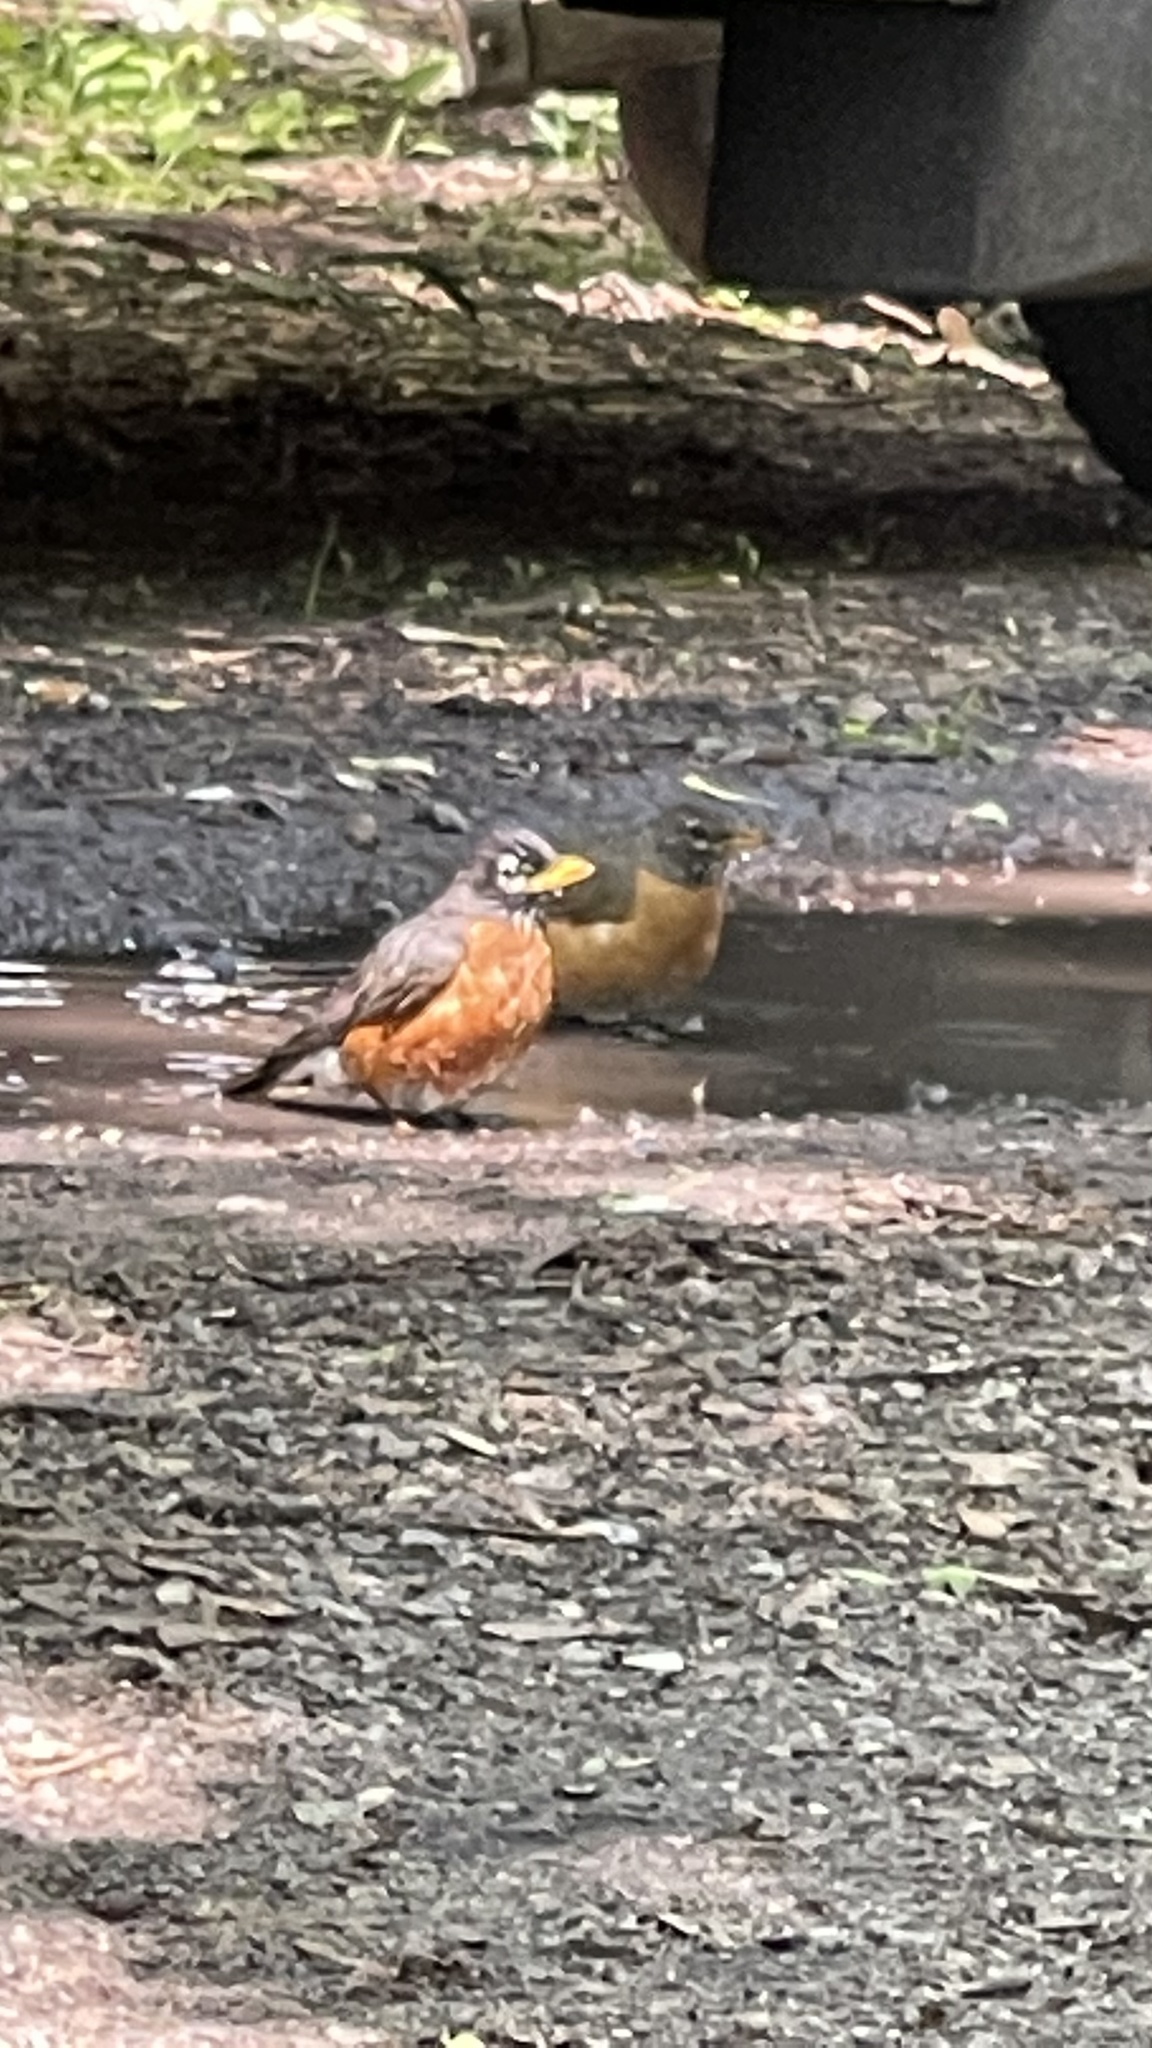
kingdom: Animalia
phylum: Chordata
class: Aves
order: Passeriformes
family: Turdidae
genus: Turdus
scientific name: Turdus migratorius
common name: American robin
